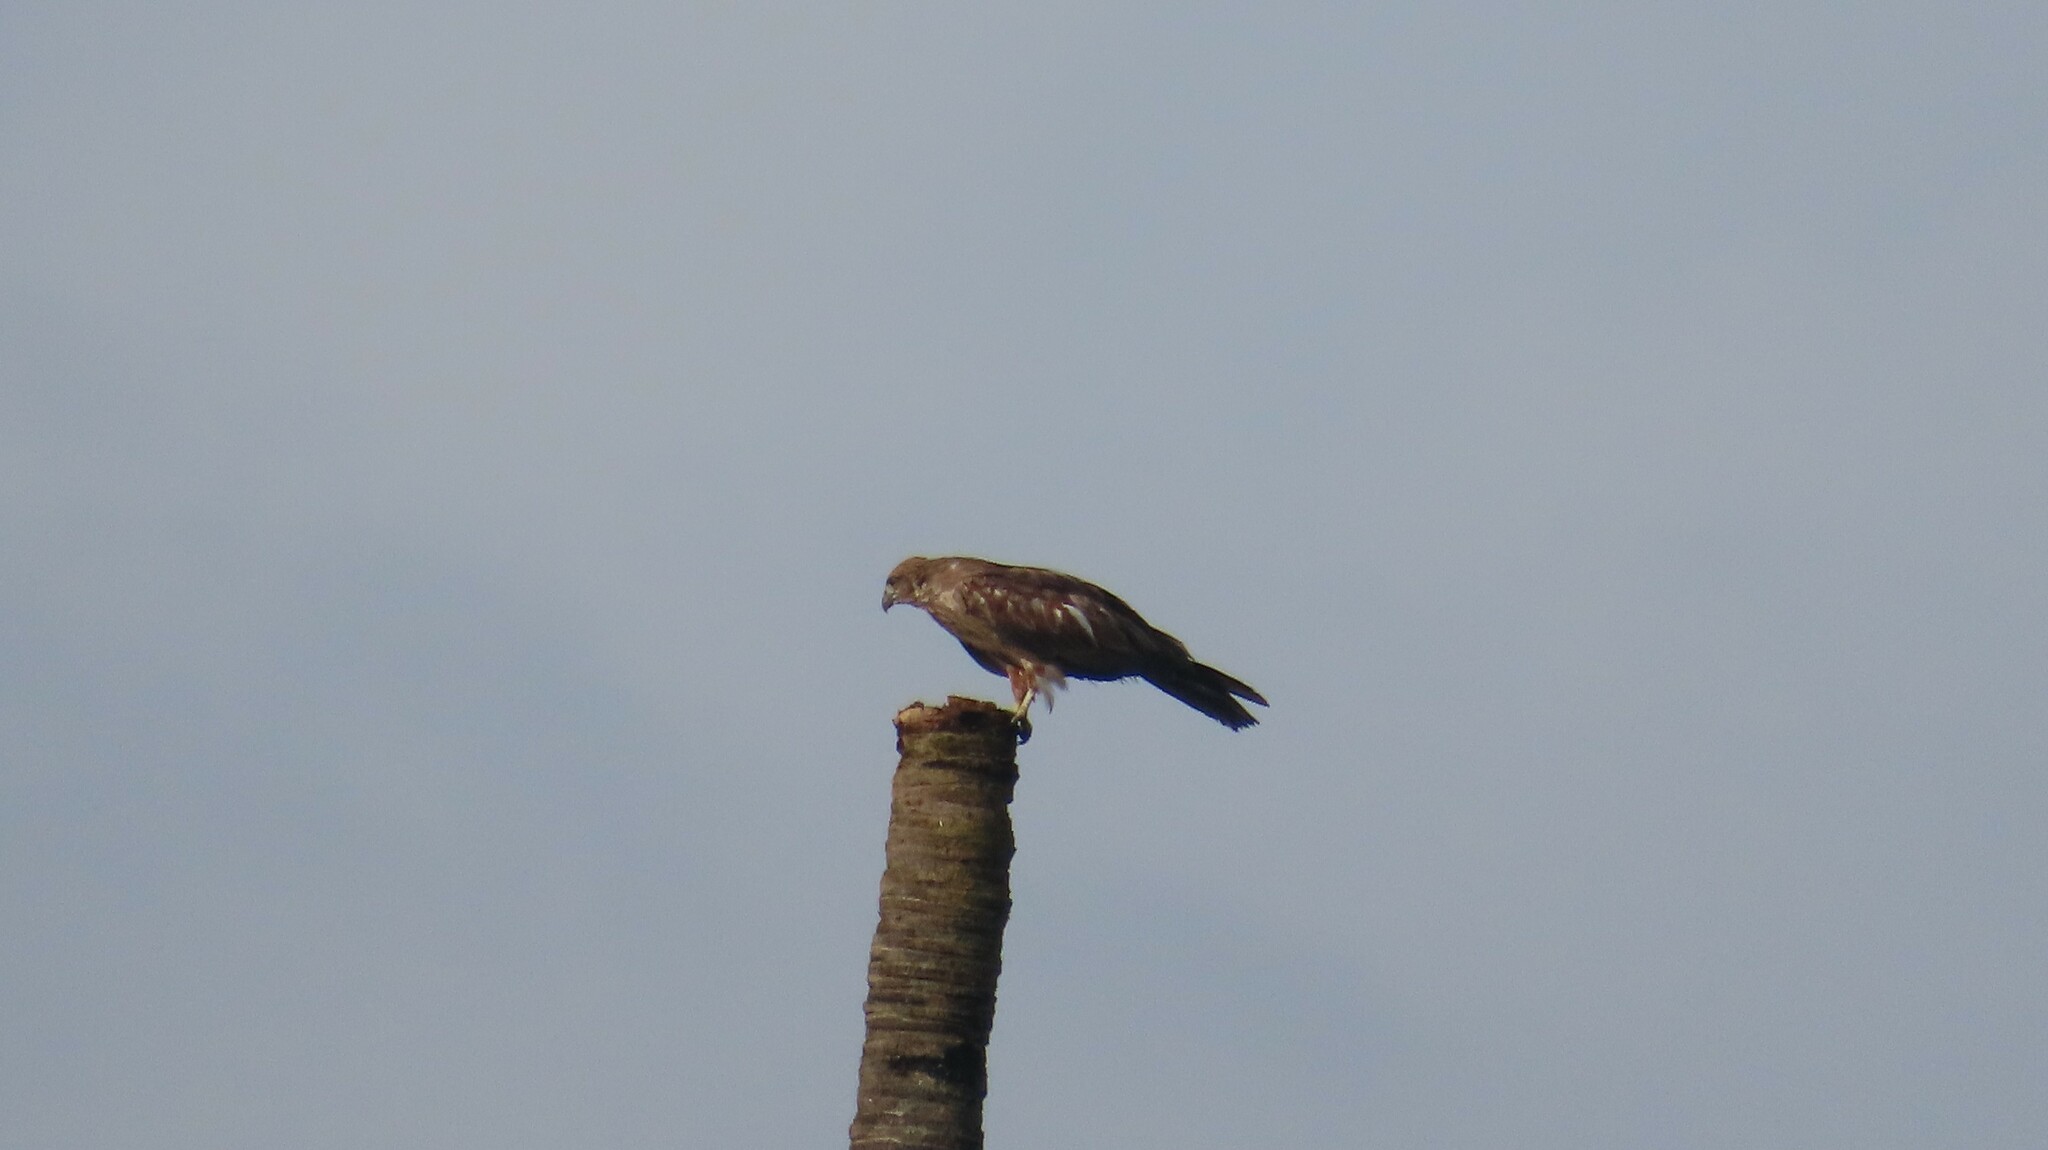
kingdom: Animalia
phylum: Chordata
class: Aves
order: Accipitriformes
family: Accipitridae
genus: Milvus
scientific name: Milvus migrans
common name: Black kite
